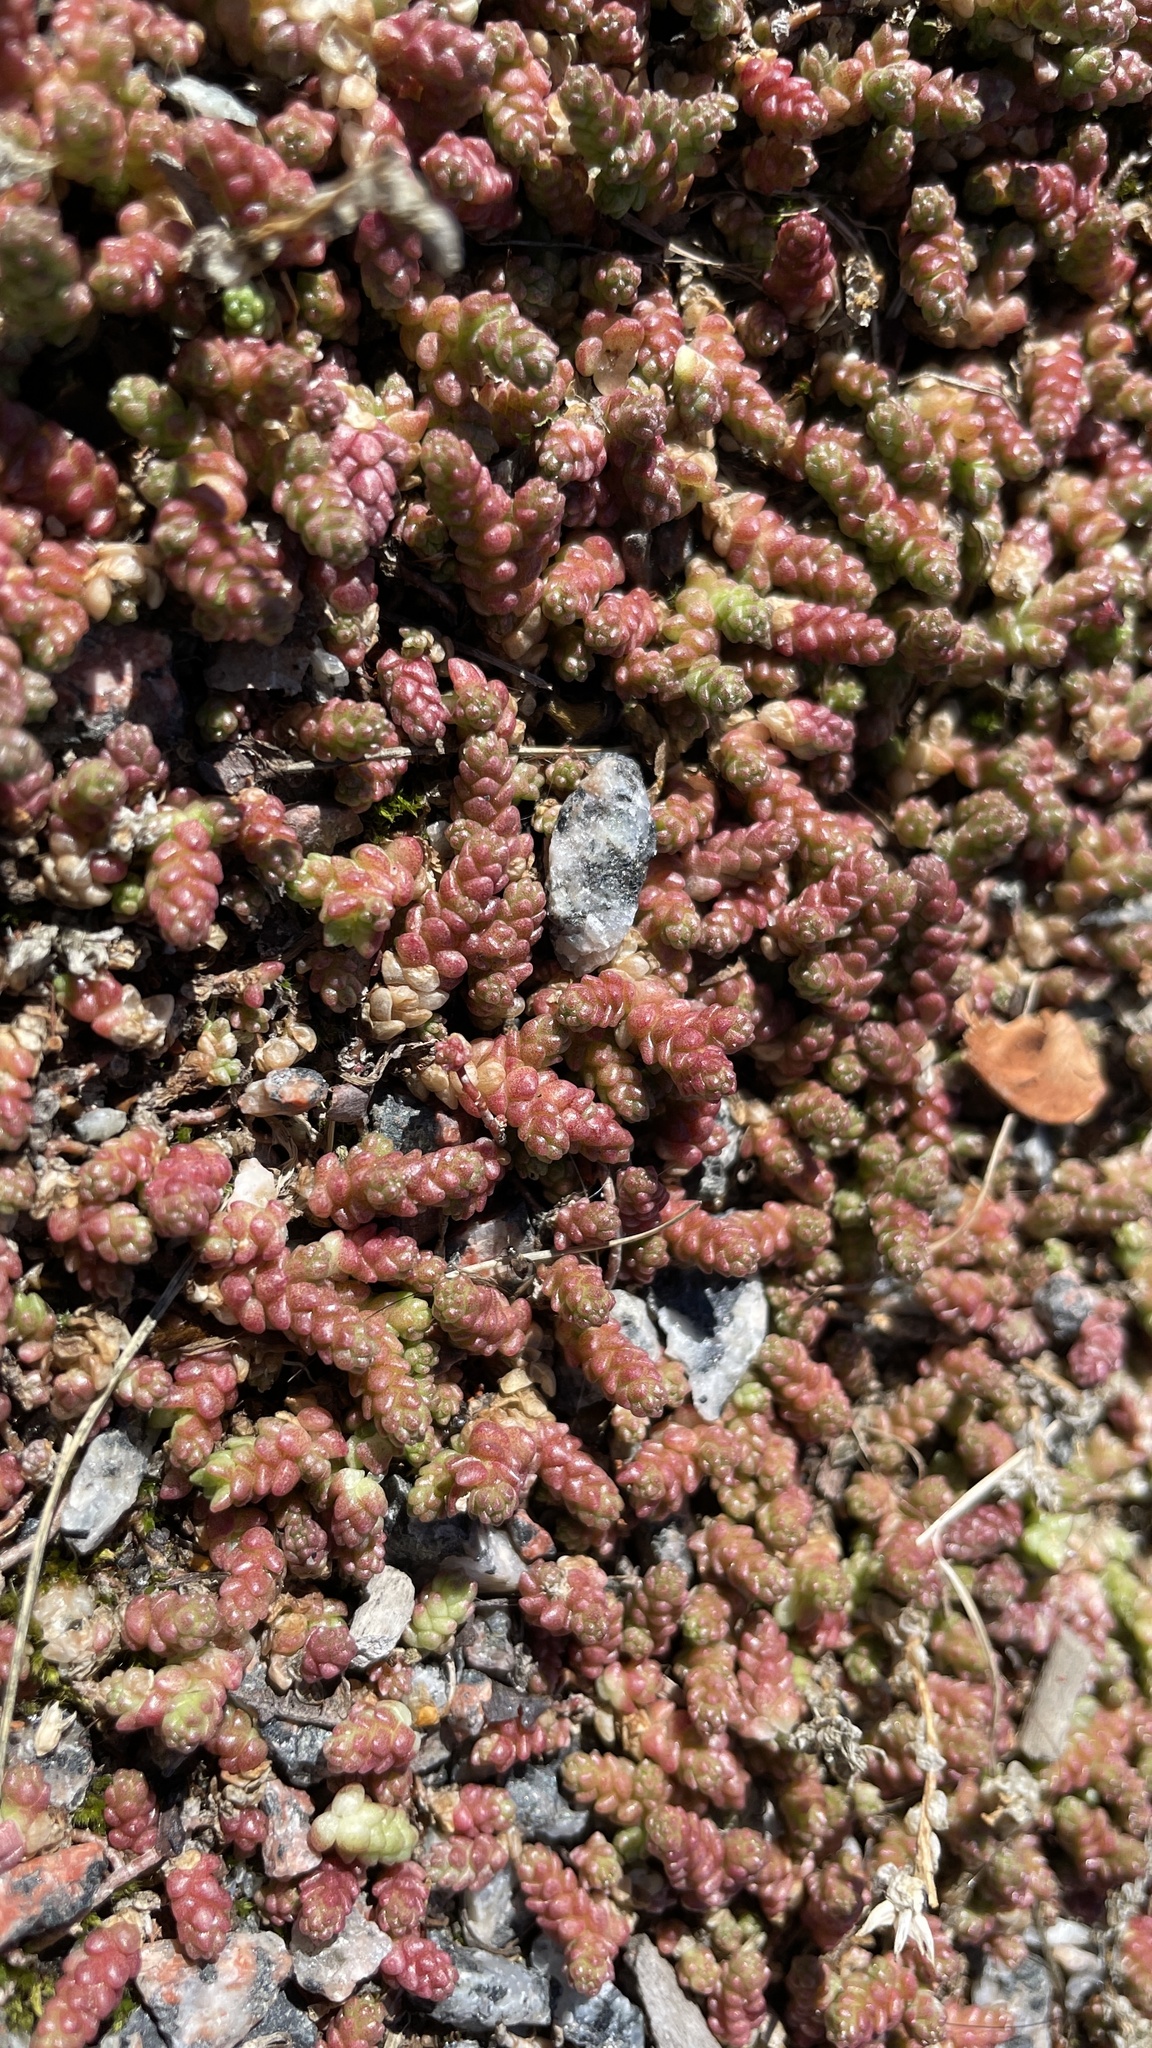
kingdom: Plantae
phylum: Tracheophyta
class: Magnoliopsida
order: Saxifragales
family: Crassulaceae
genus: Sedum
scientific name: Sedum acre
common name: Biting stonecrop
